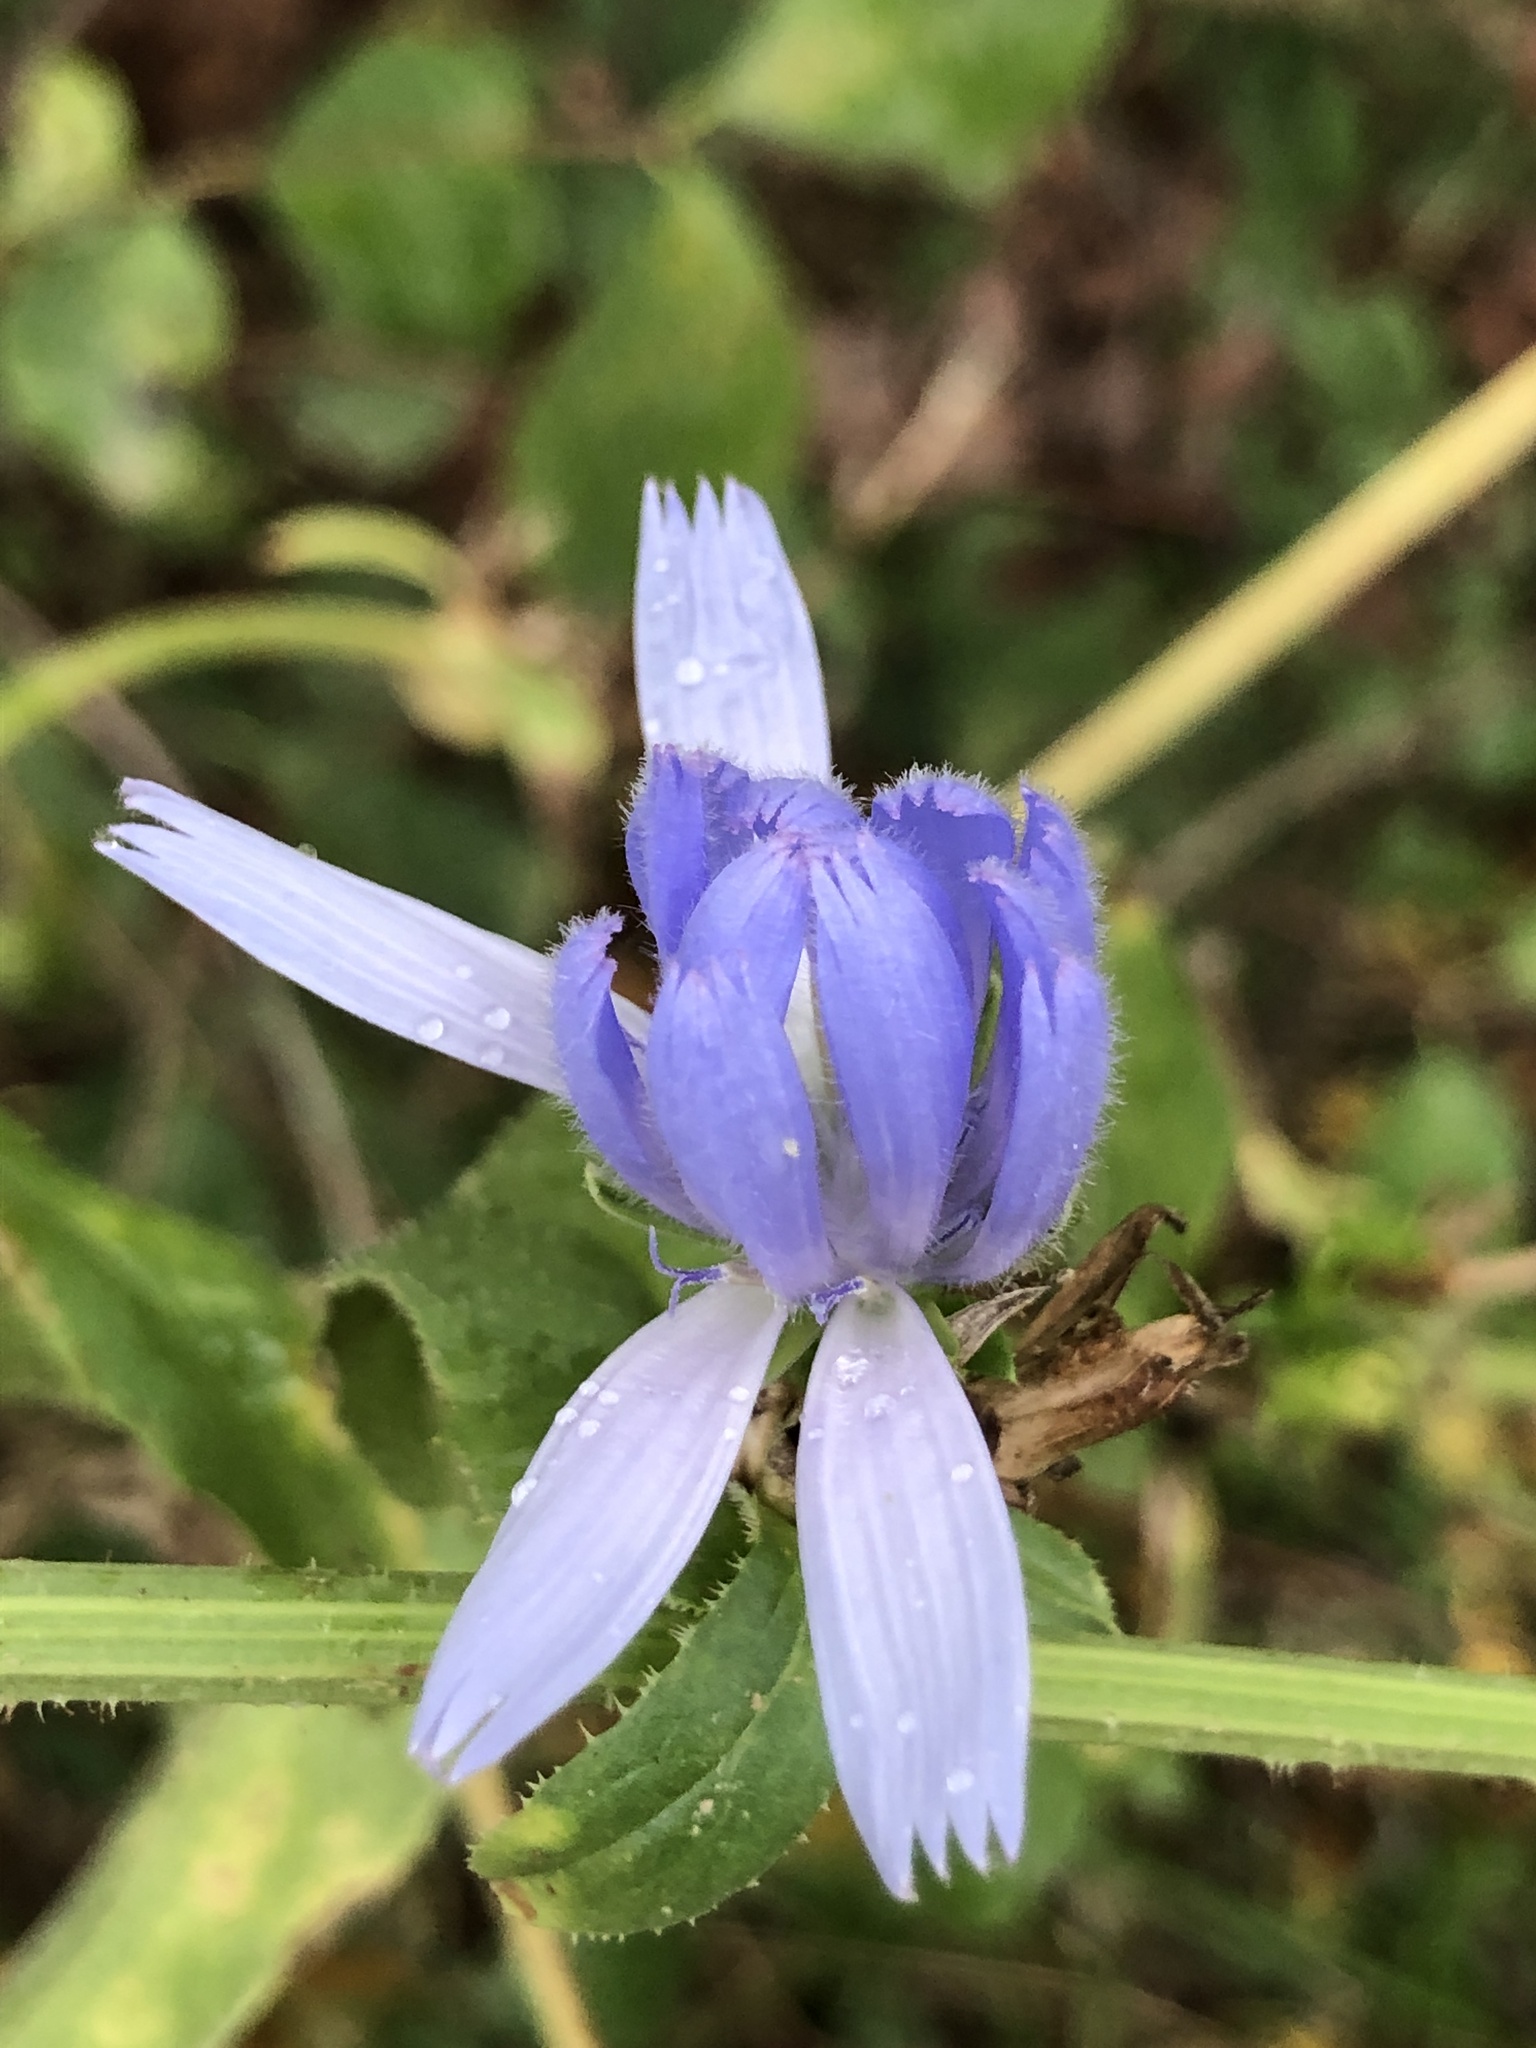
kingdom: Plantae
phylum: Tracheophyta
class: Magnoliopsida
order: Asterales
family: Asteraceae
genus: Cichorium
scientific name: Cichorium intybus
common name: Chicory
